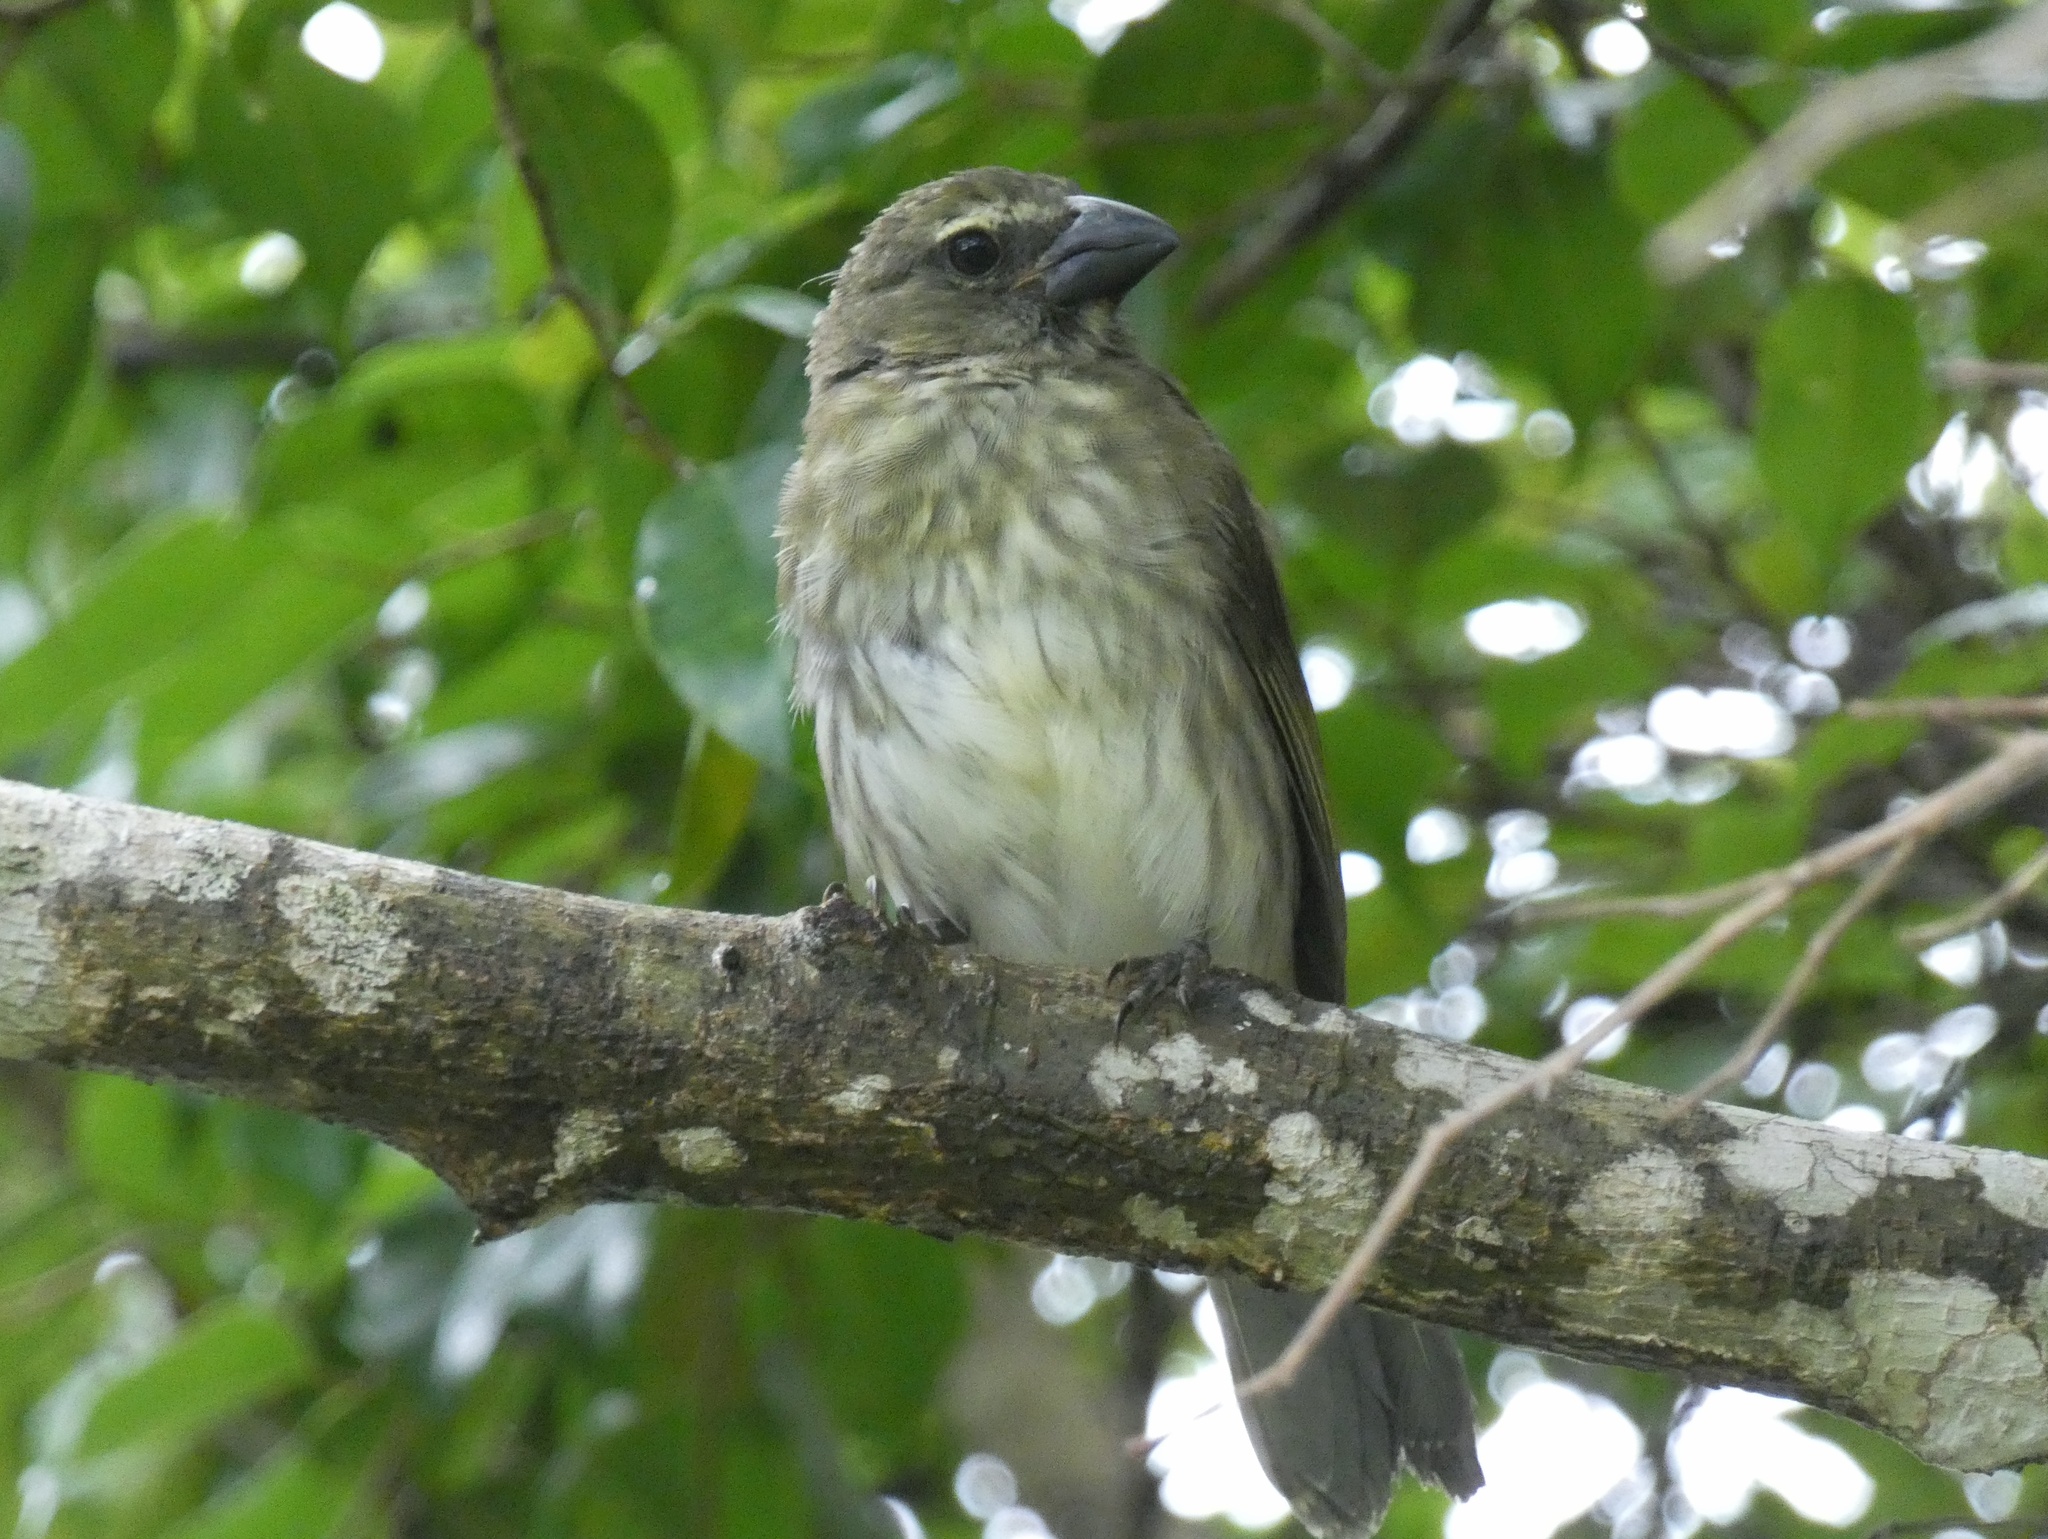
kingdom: Animalia
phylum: Chordata
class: Aves
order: Passeriformes
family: Thraupidae
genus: Saltator
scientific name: Saltator striatipectus
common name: Streaked saltator
